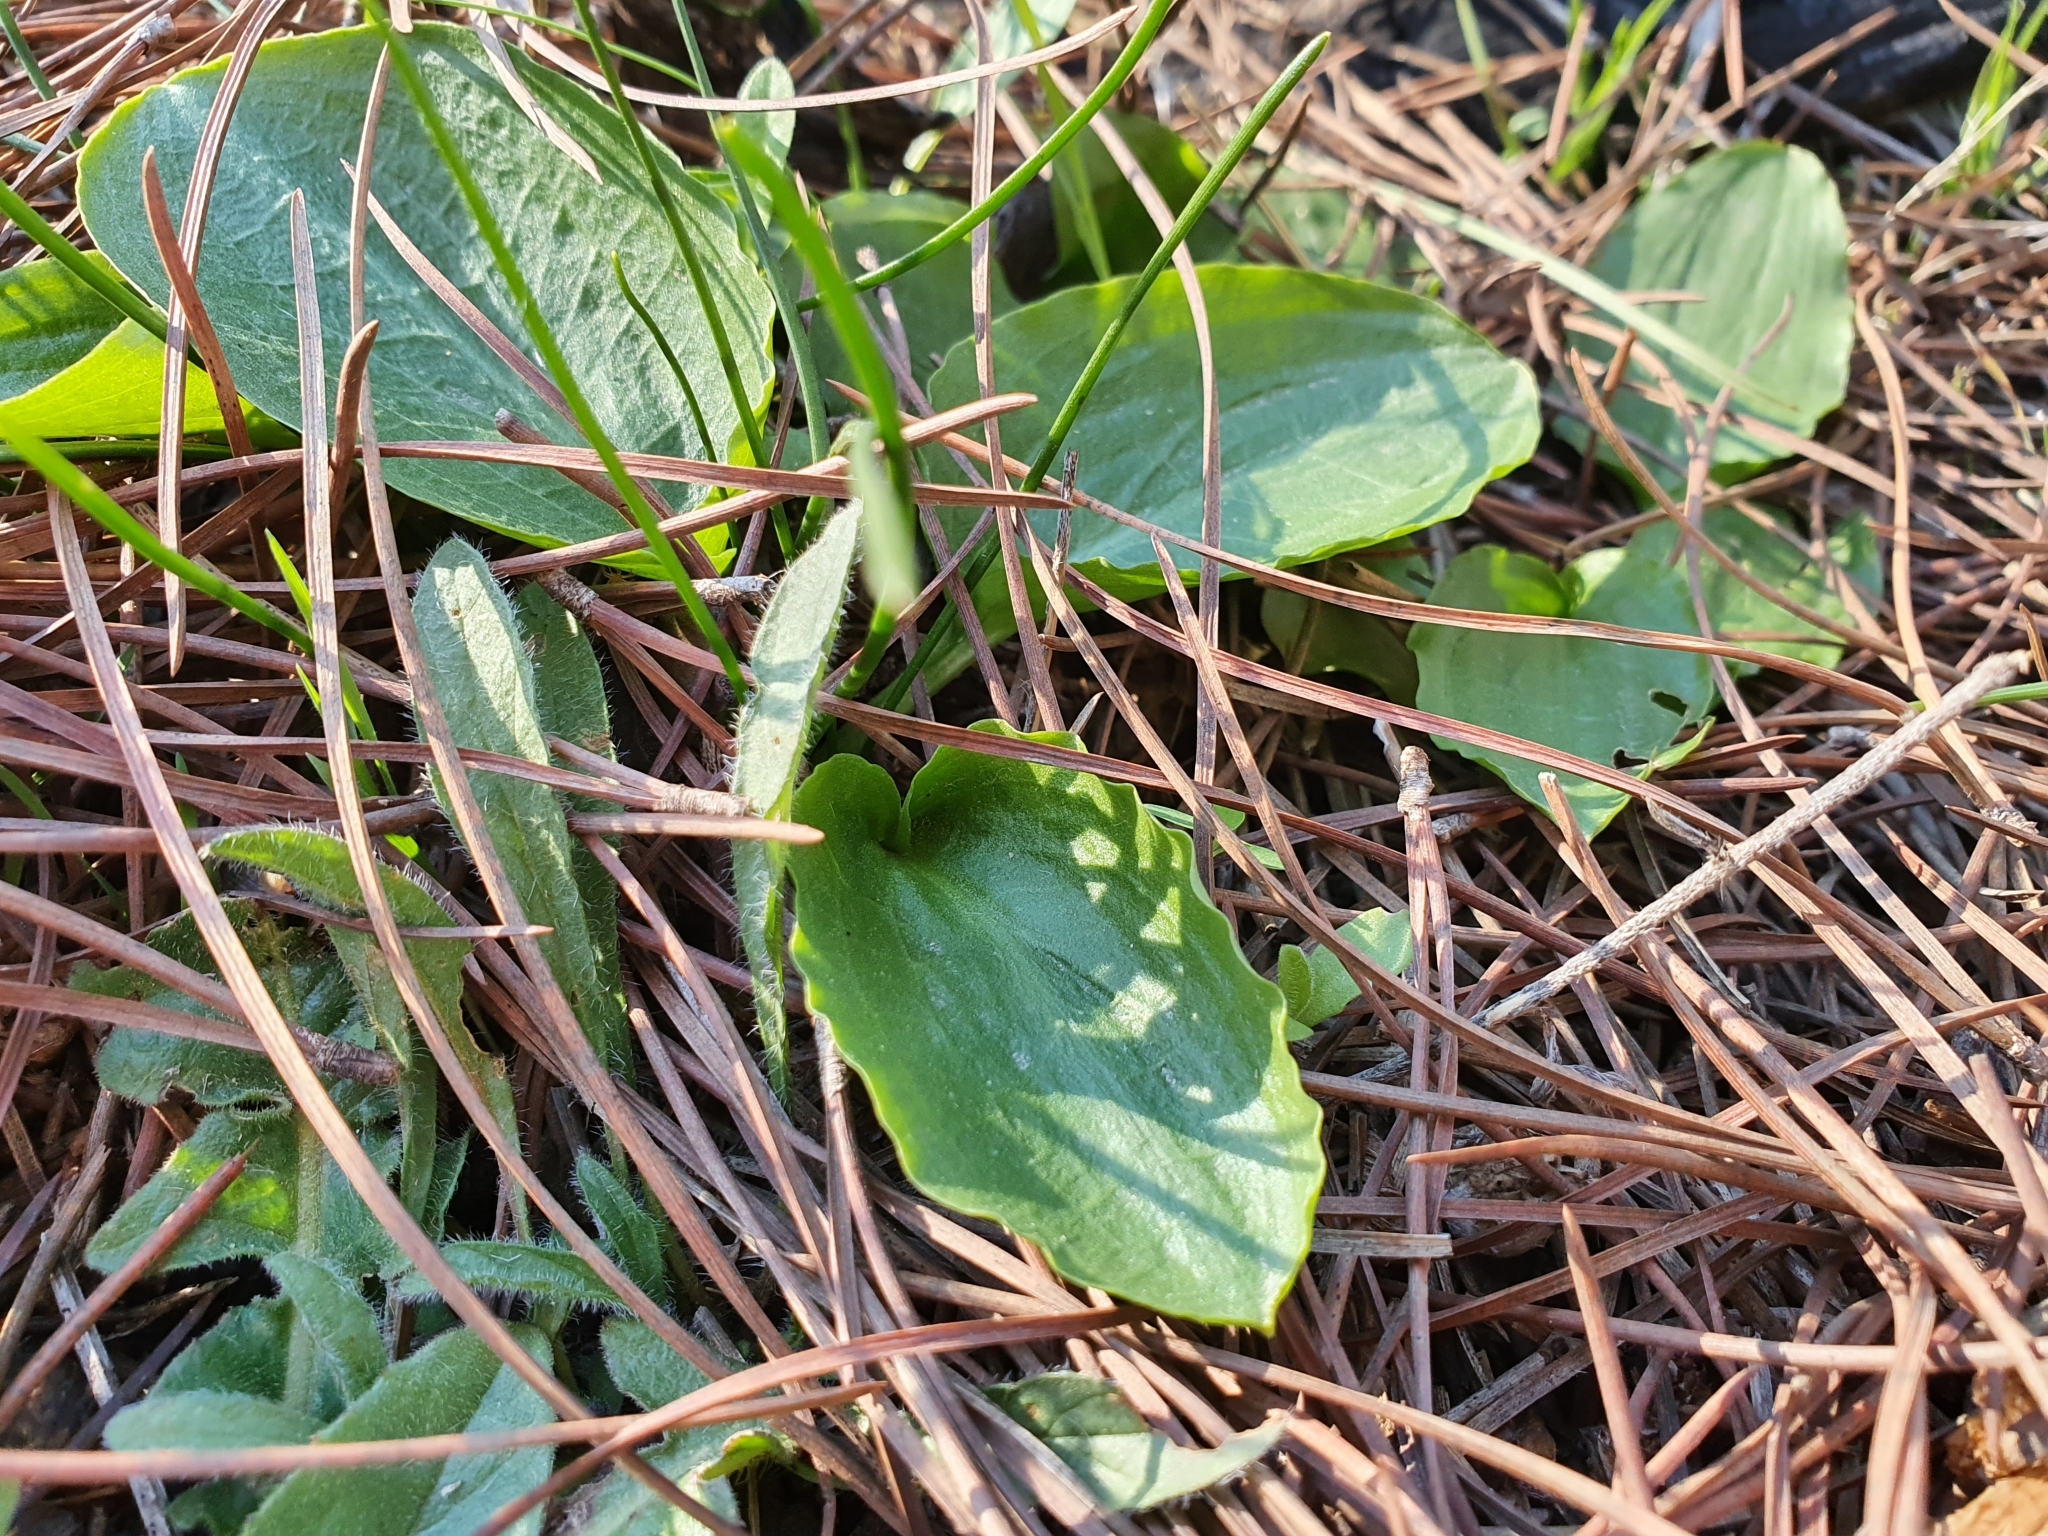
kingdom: Plantae
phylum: Tracheophyta
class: Liliopsida
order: Alismatales
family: Araceae
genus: Ambrosina
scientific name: Ambrosina bassii
